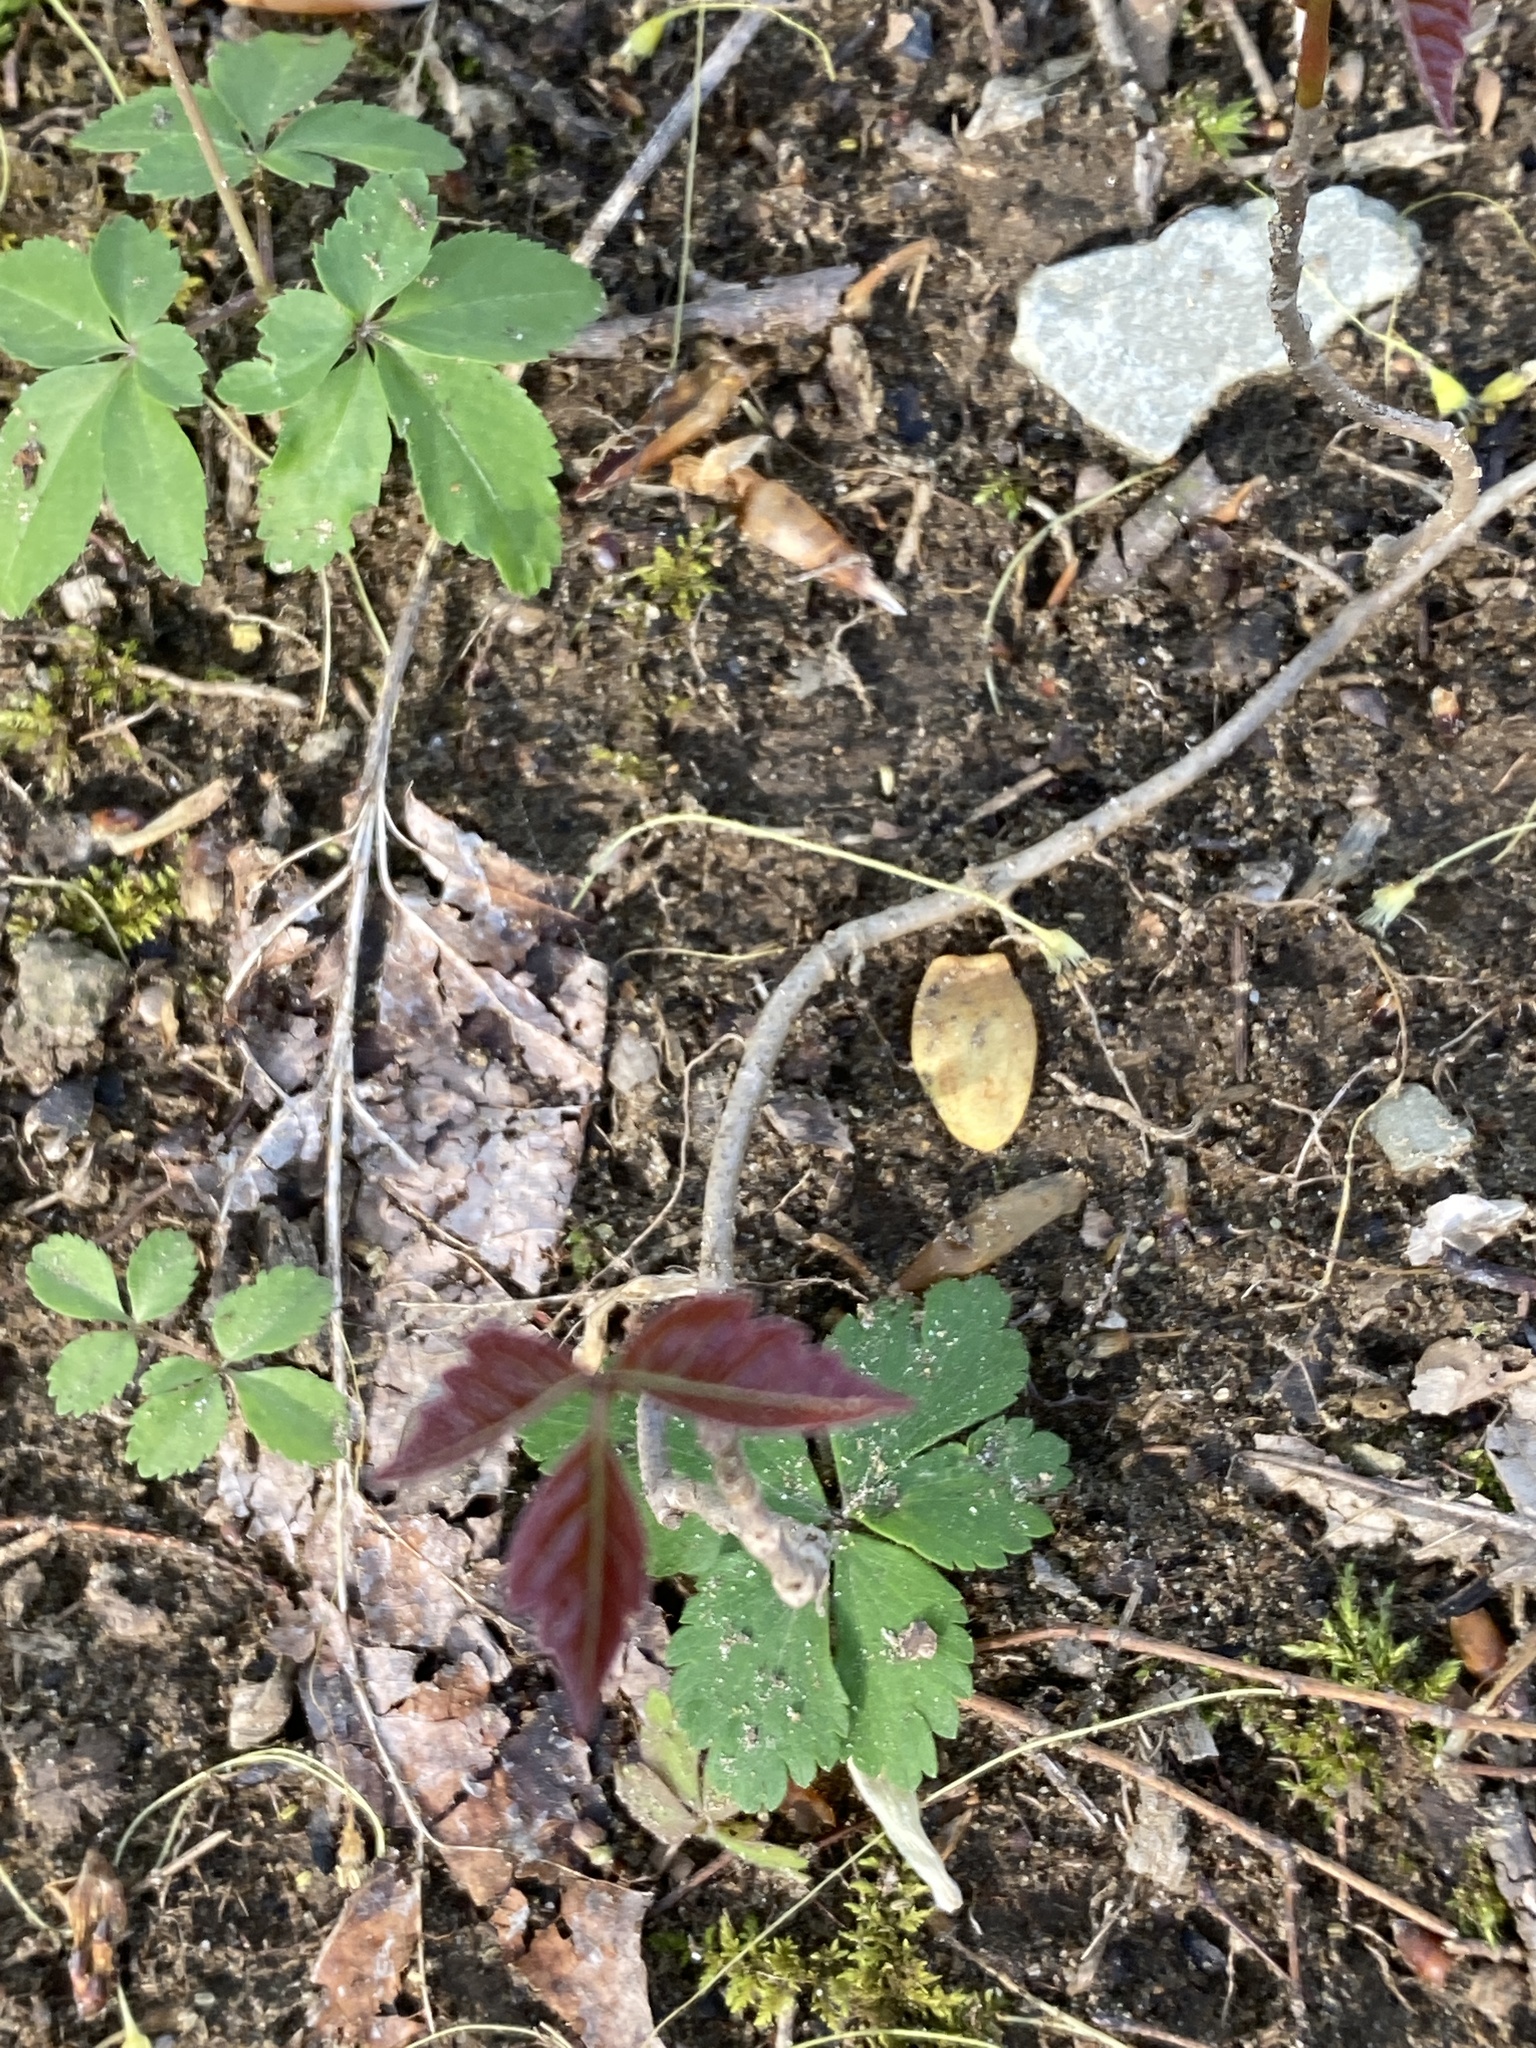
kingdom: Plantae
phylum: Tracheophyta
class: Magnoliopsida
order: Sapindales
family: Anacardiaceae
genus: Toxicodendron
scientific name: Toxicodendron radicans
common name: Poison ivy
